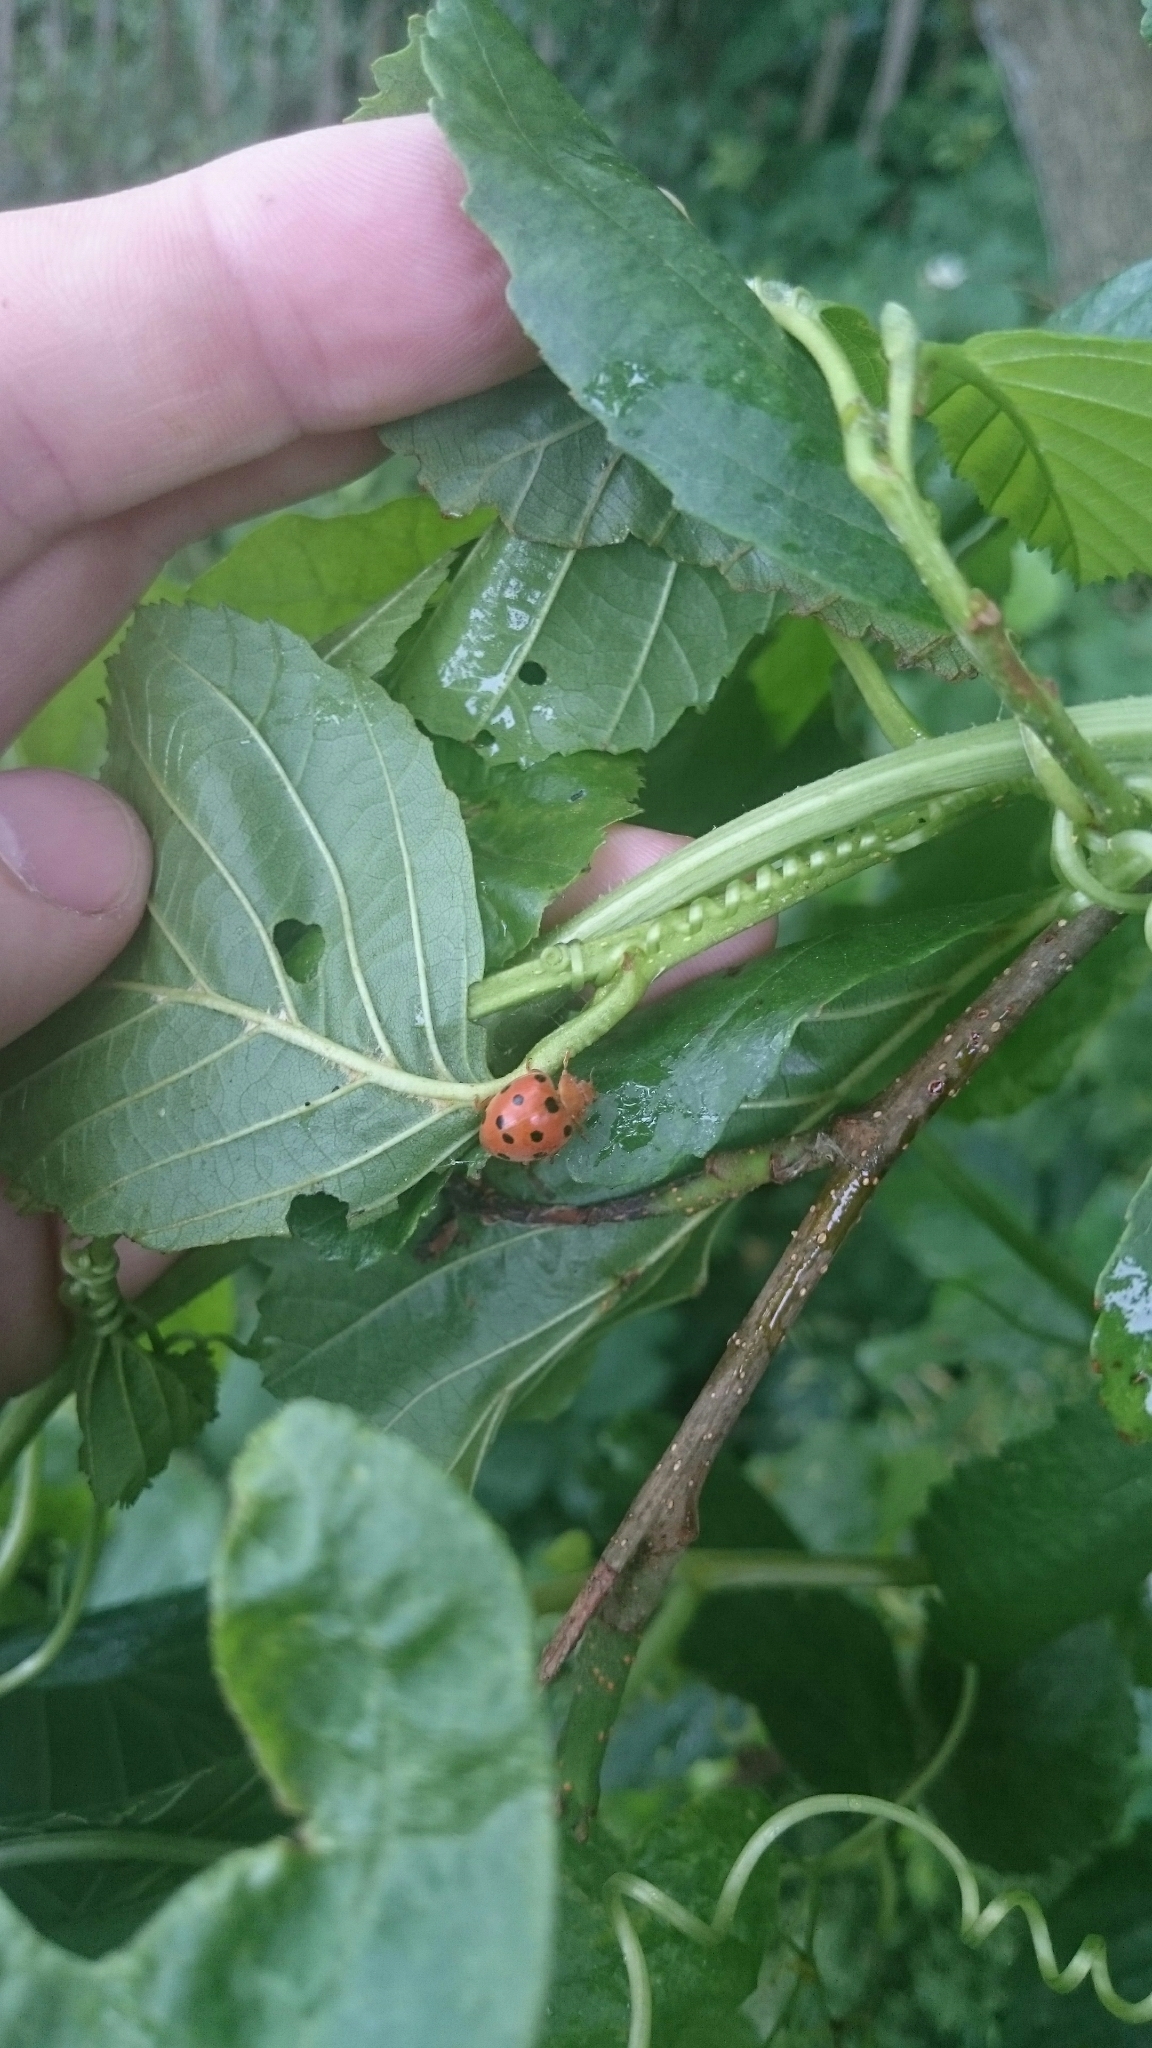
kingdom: Animalia
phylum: Arthropoda
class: Insecta
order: Coleoptera
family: Coccinellidae
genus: Henosepilachna
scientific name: Henosepilachna argus
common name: Bryony ladybird
